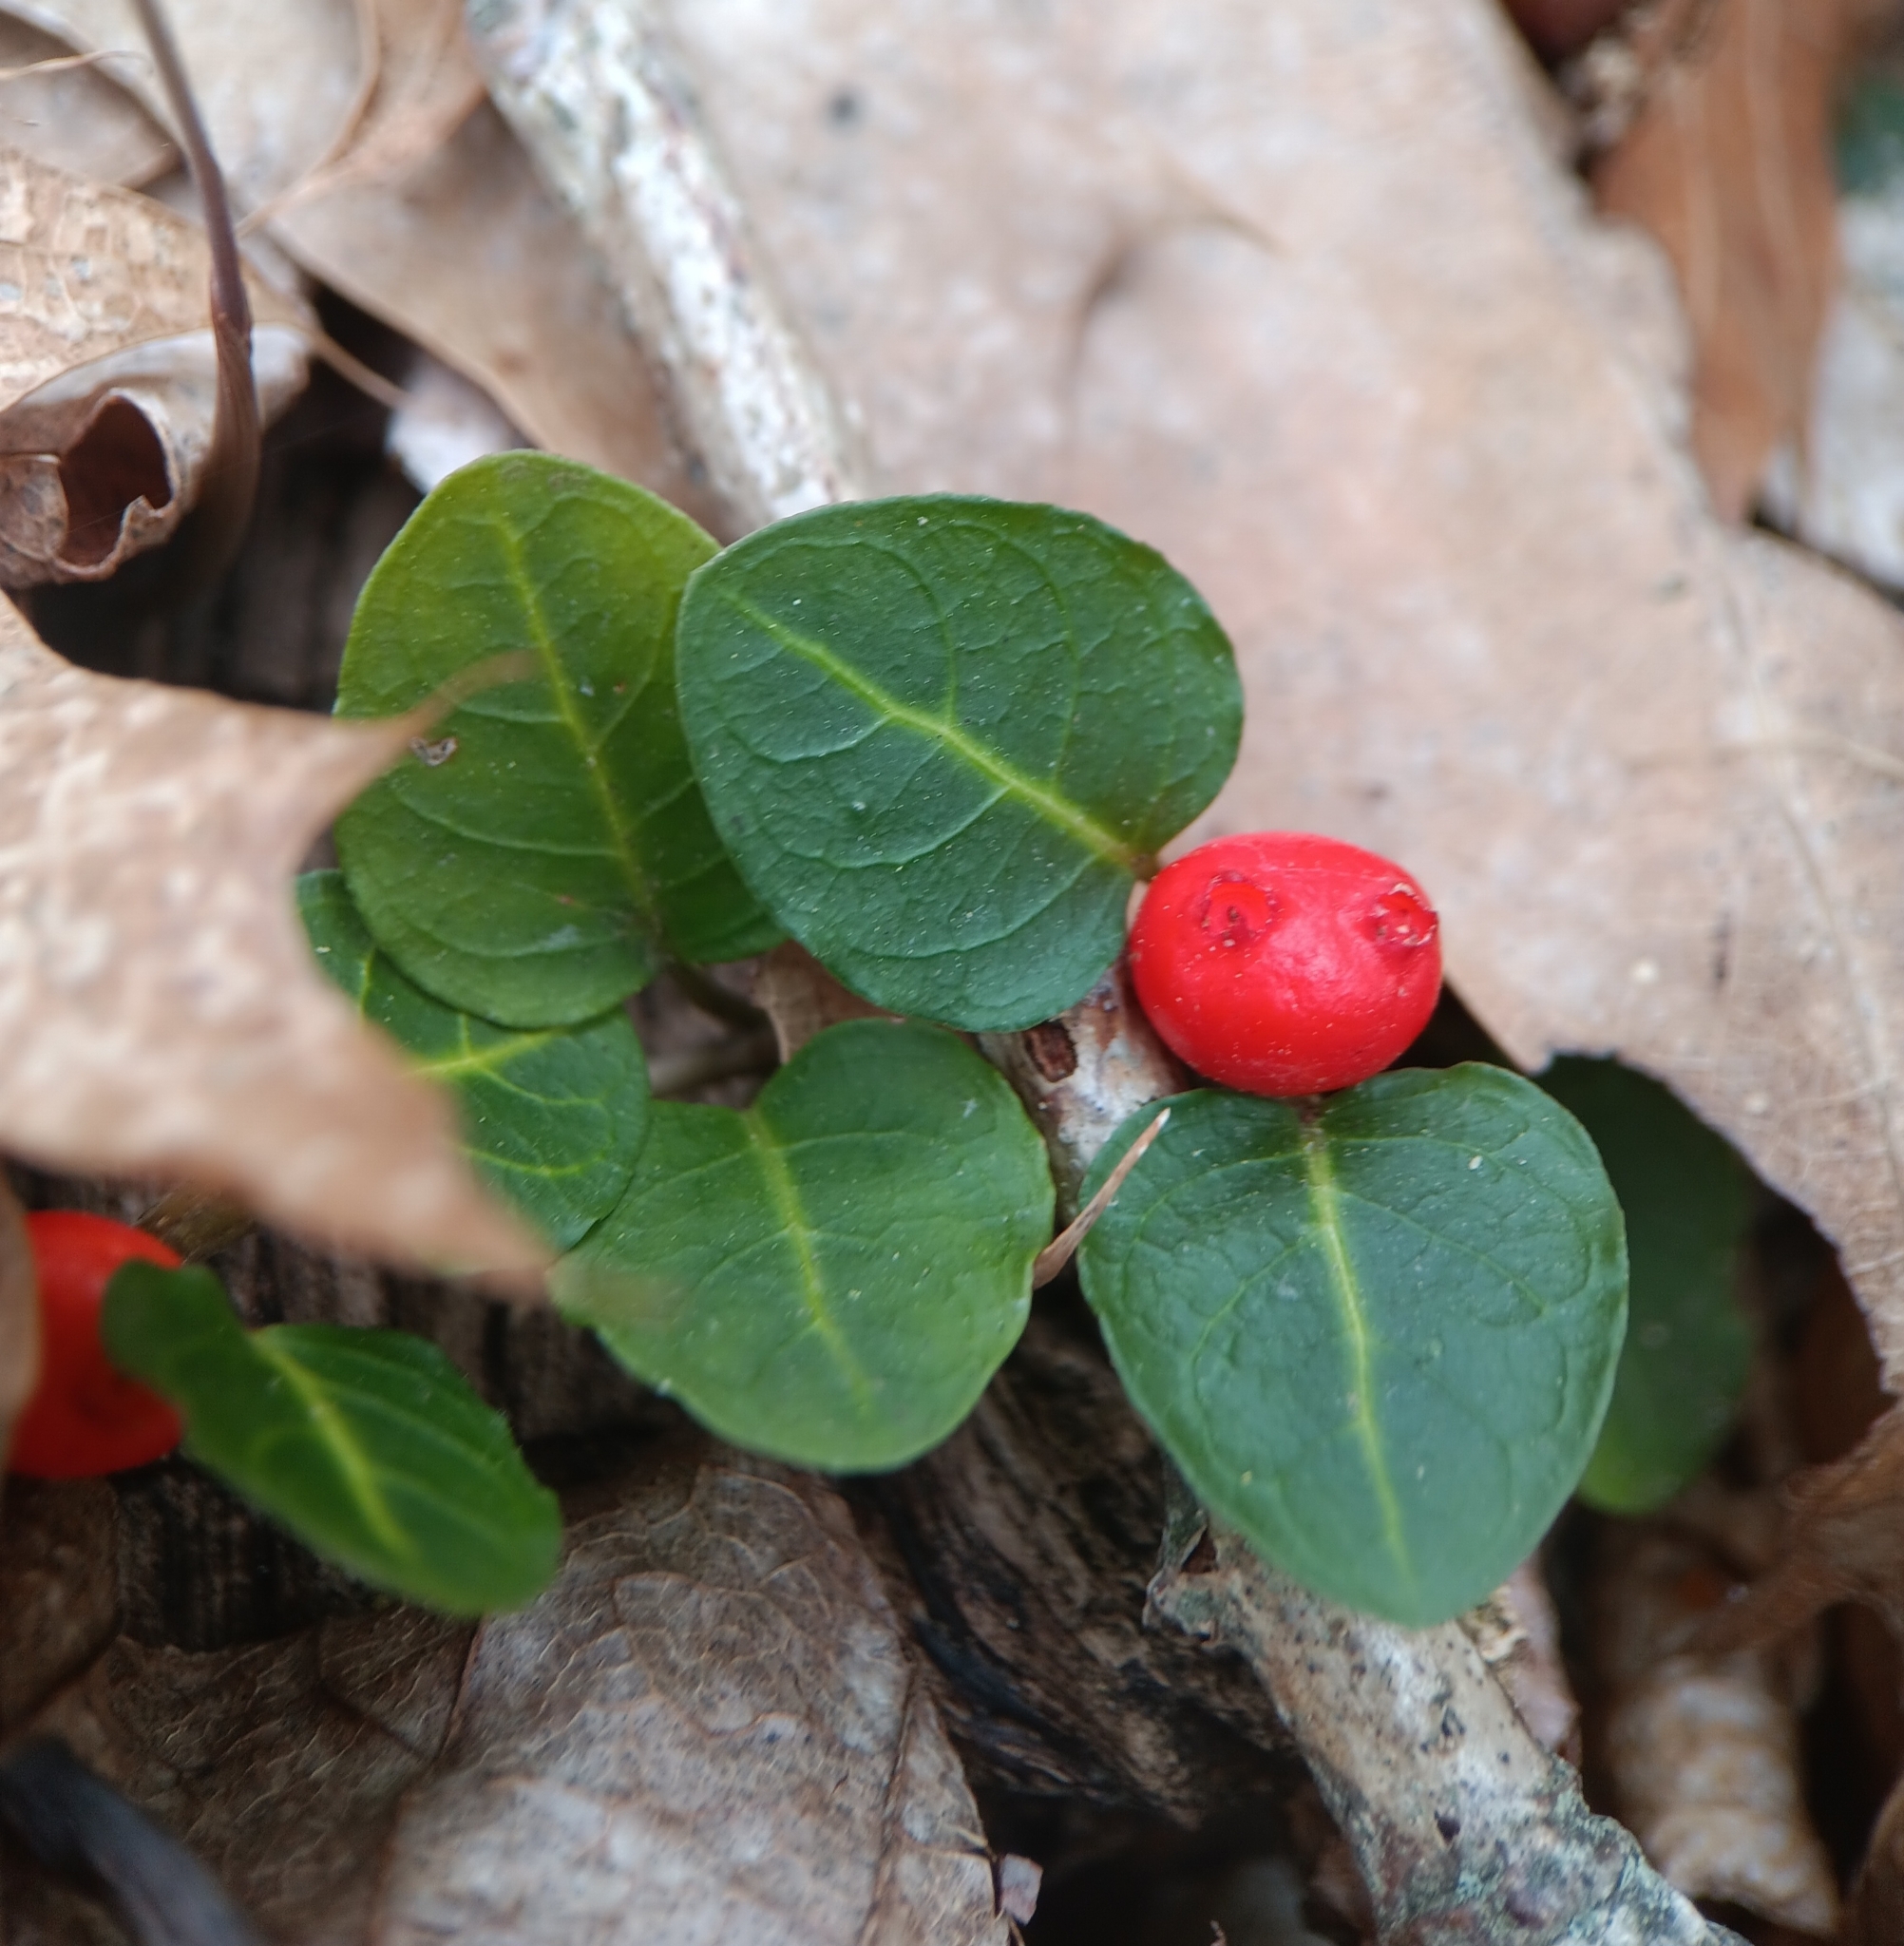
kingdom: Plantae
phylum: Tracheophyta
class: Magnoliopsida
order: Gentianales
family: Rubiaceae
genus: Mitchella
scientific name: Mitchella repens
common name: Partridge-berry
